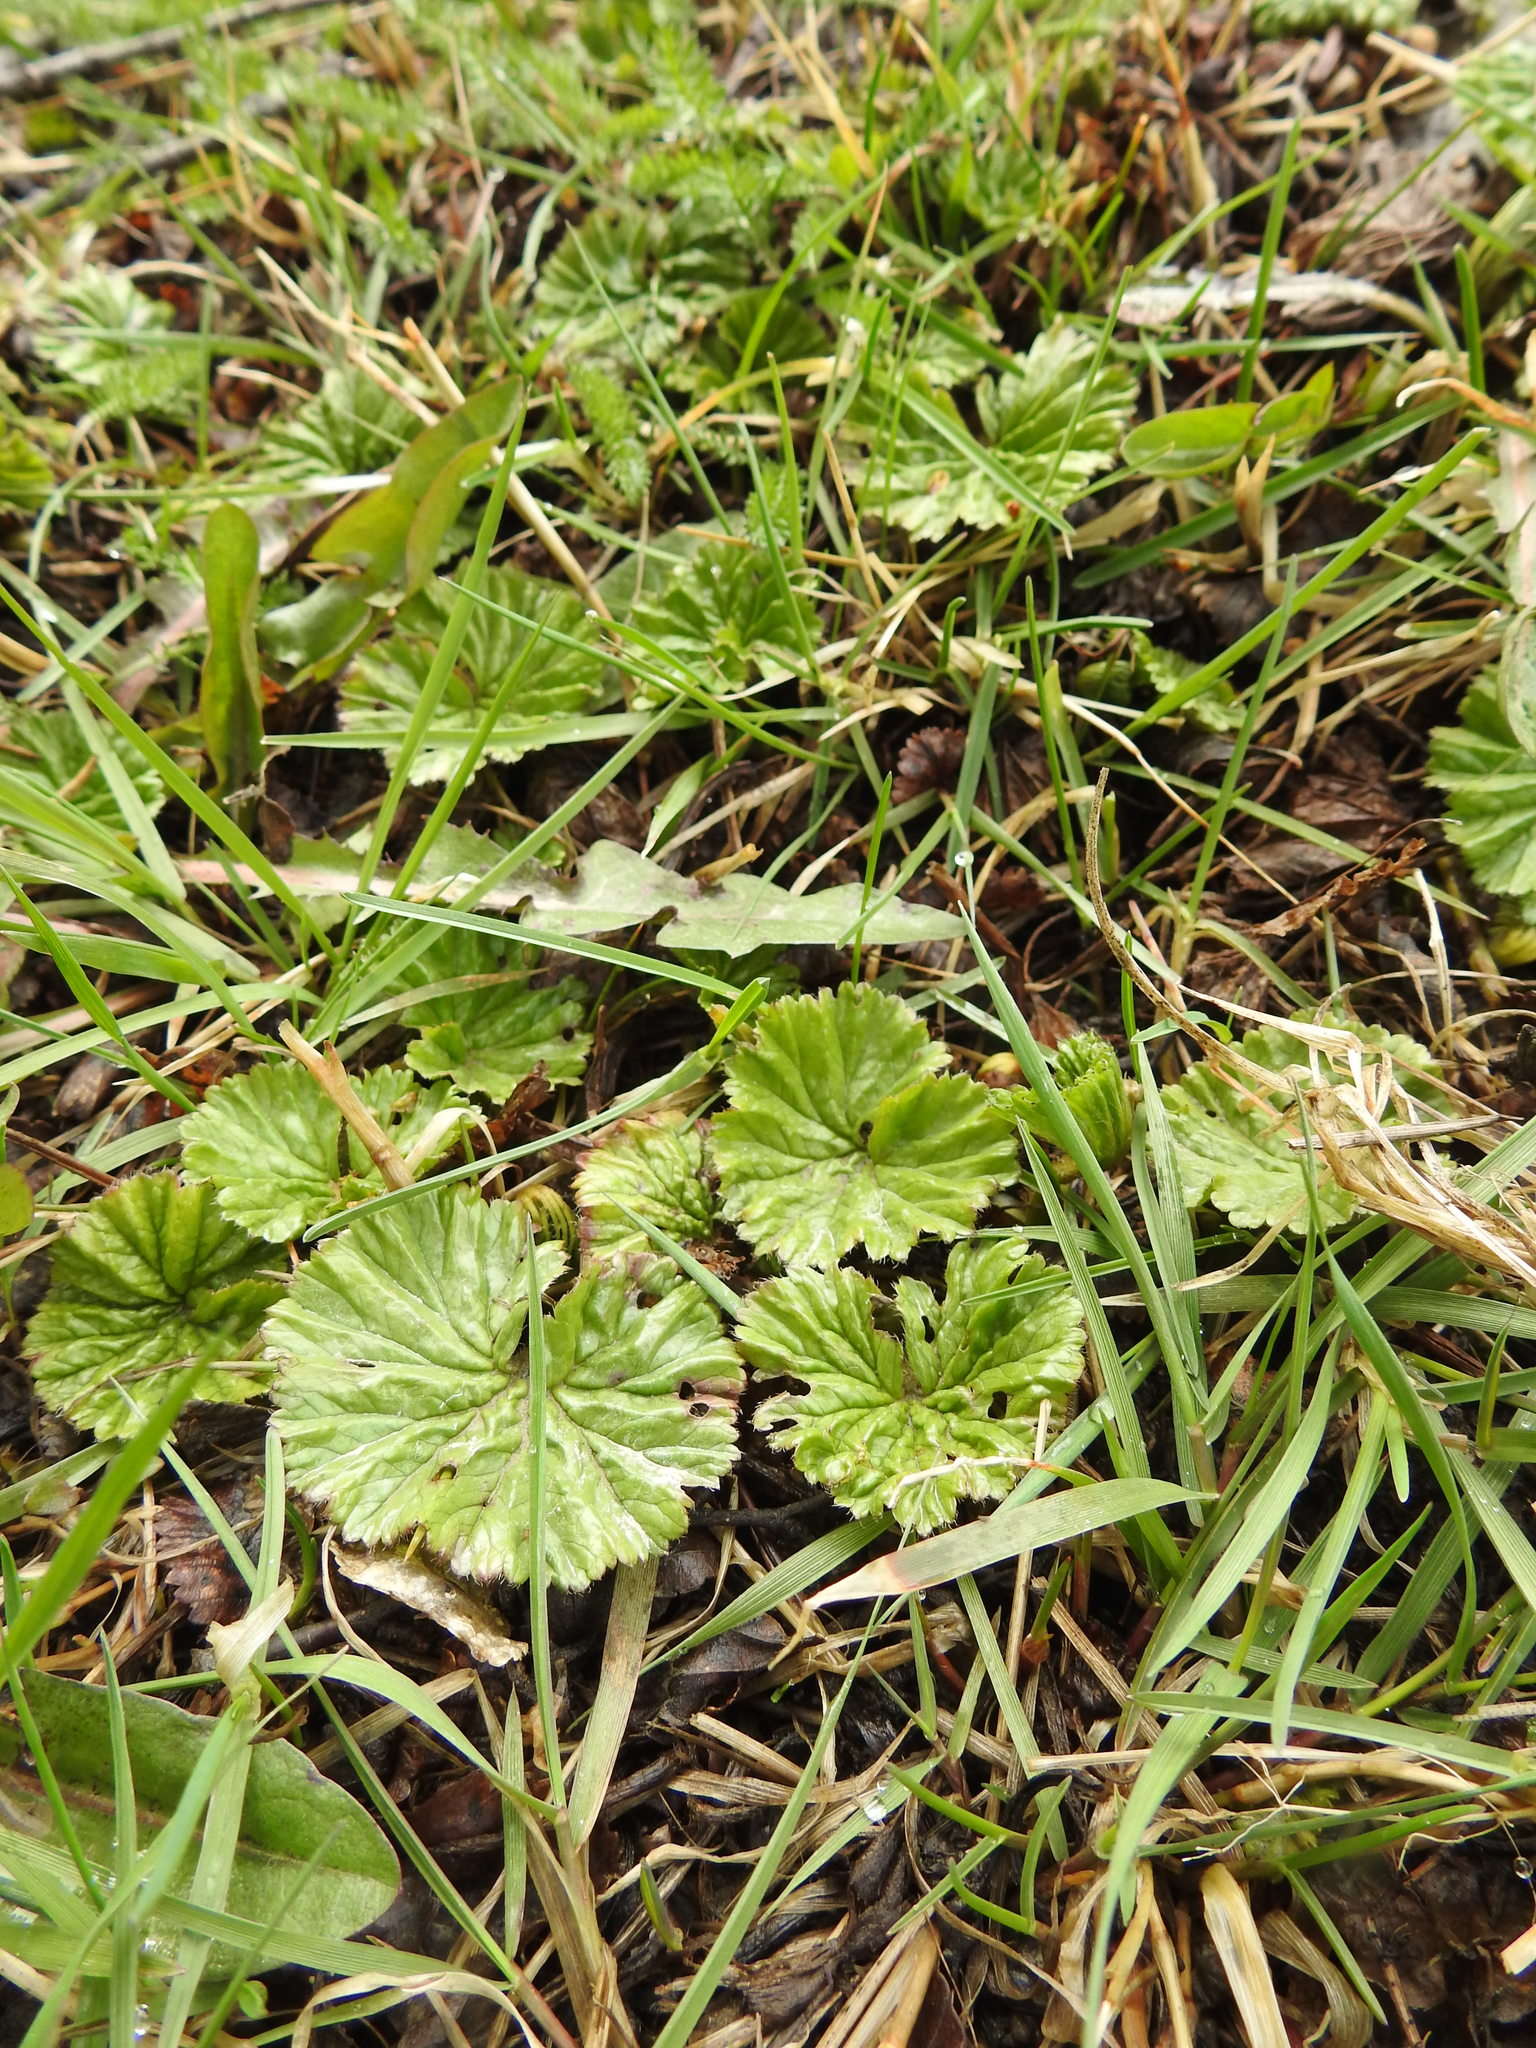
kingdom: Plantae
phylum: Tracheophyta
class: Magnoliopsida
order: Gunnerales
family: Gunneraceae
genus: Gunnera
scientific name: Gunnera magellanica
